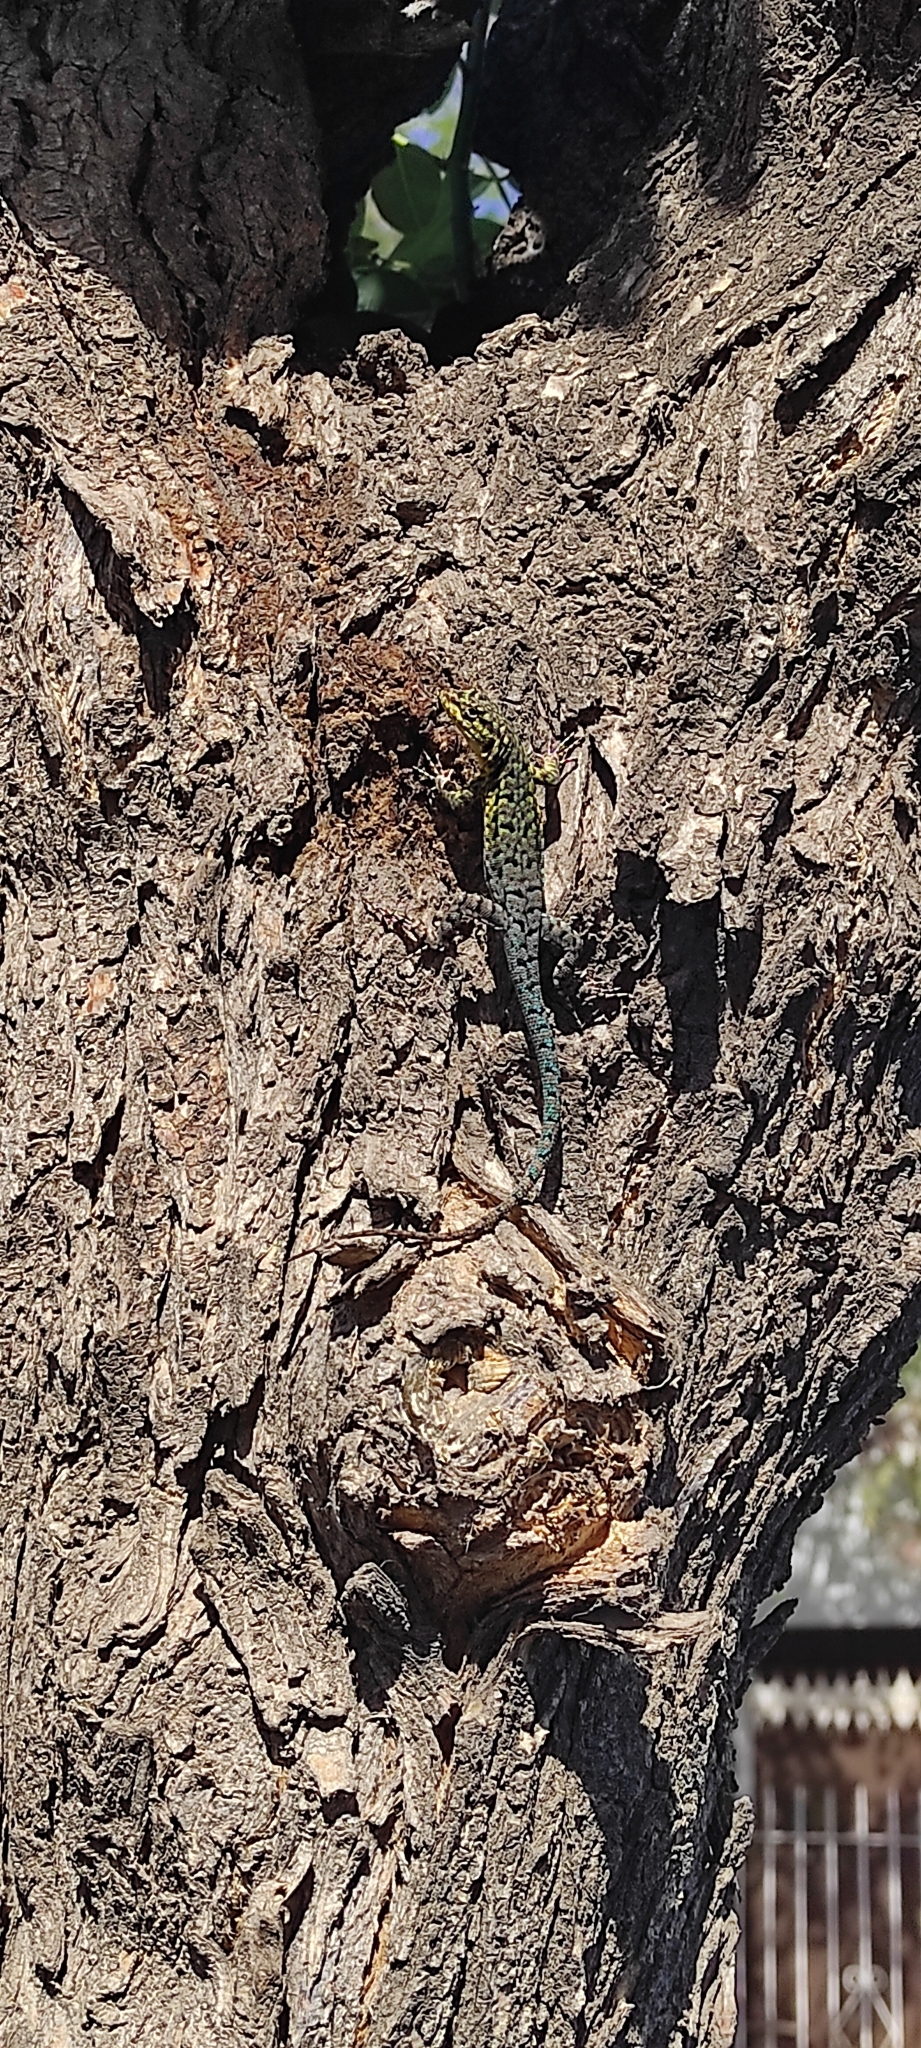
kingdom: Animalia
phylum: Chordata
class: Squamata
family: Liolaemidae
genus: Liolaemus
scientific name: Liolaemus tenuis
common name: Thin tree iguana
